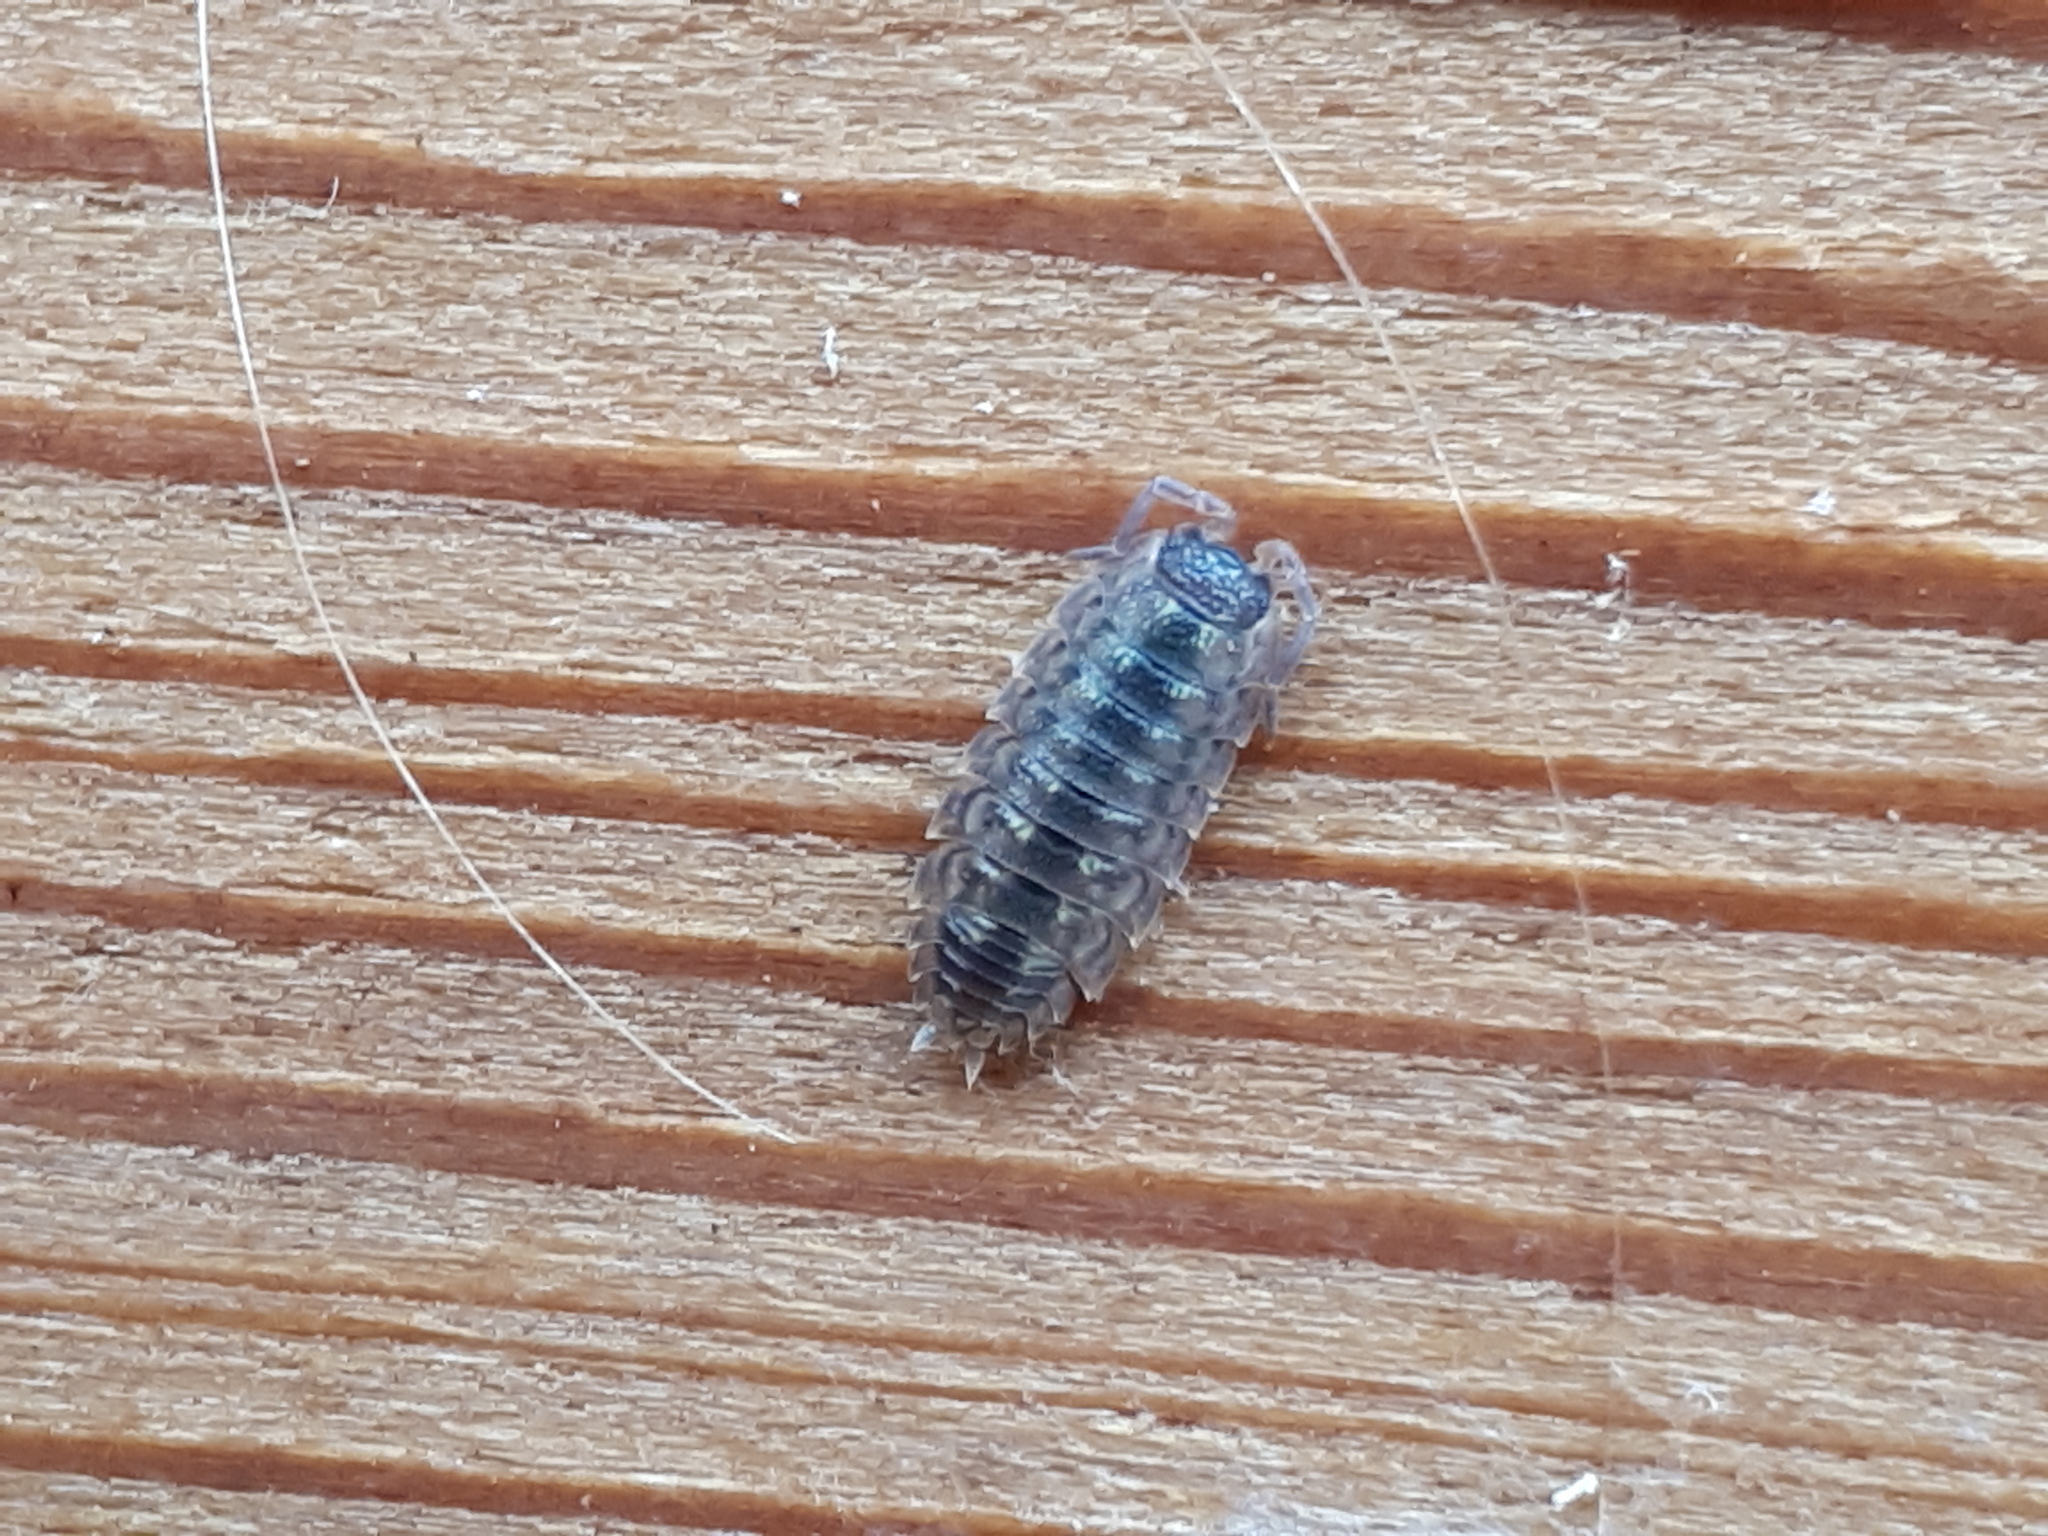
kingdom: Animalia
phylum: Arthropoda
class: Malacostraca
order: Isopoda
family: Porcellionidae
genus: Porcellio
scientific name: Porcellio spinicornis
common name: Painted woodlouse
